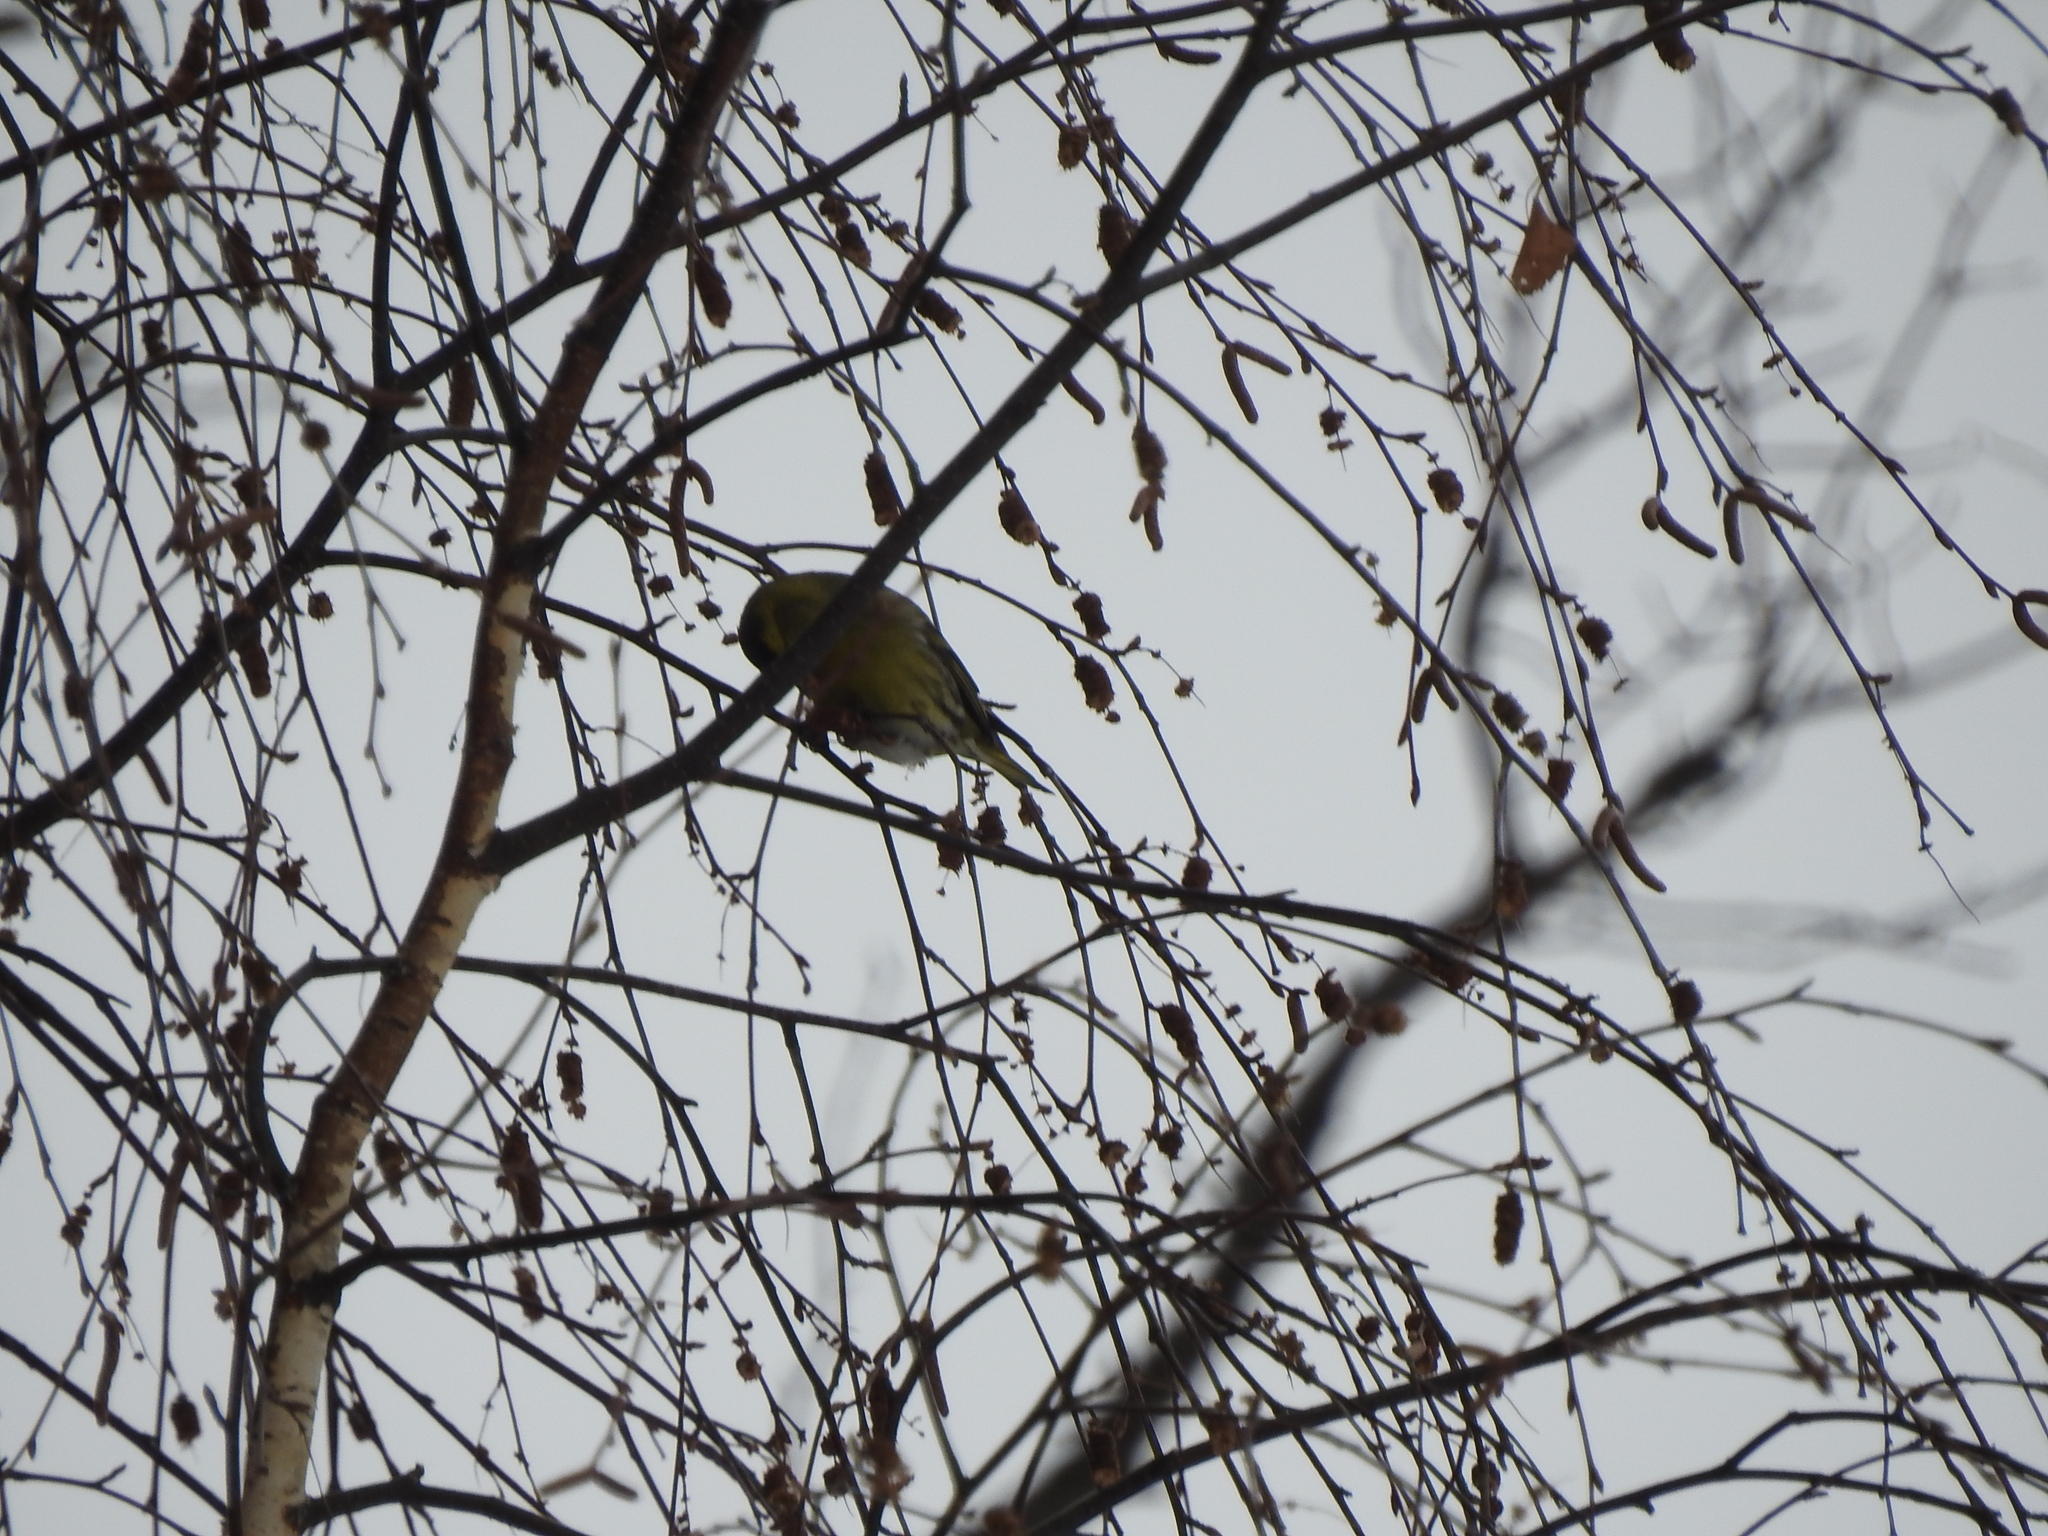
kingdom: Animalia
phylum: Chordata
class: Aves
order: Passeriformes
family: Fringillidae
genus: Spinus
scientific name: Spinus spinus
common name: Eurasian siskin
